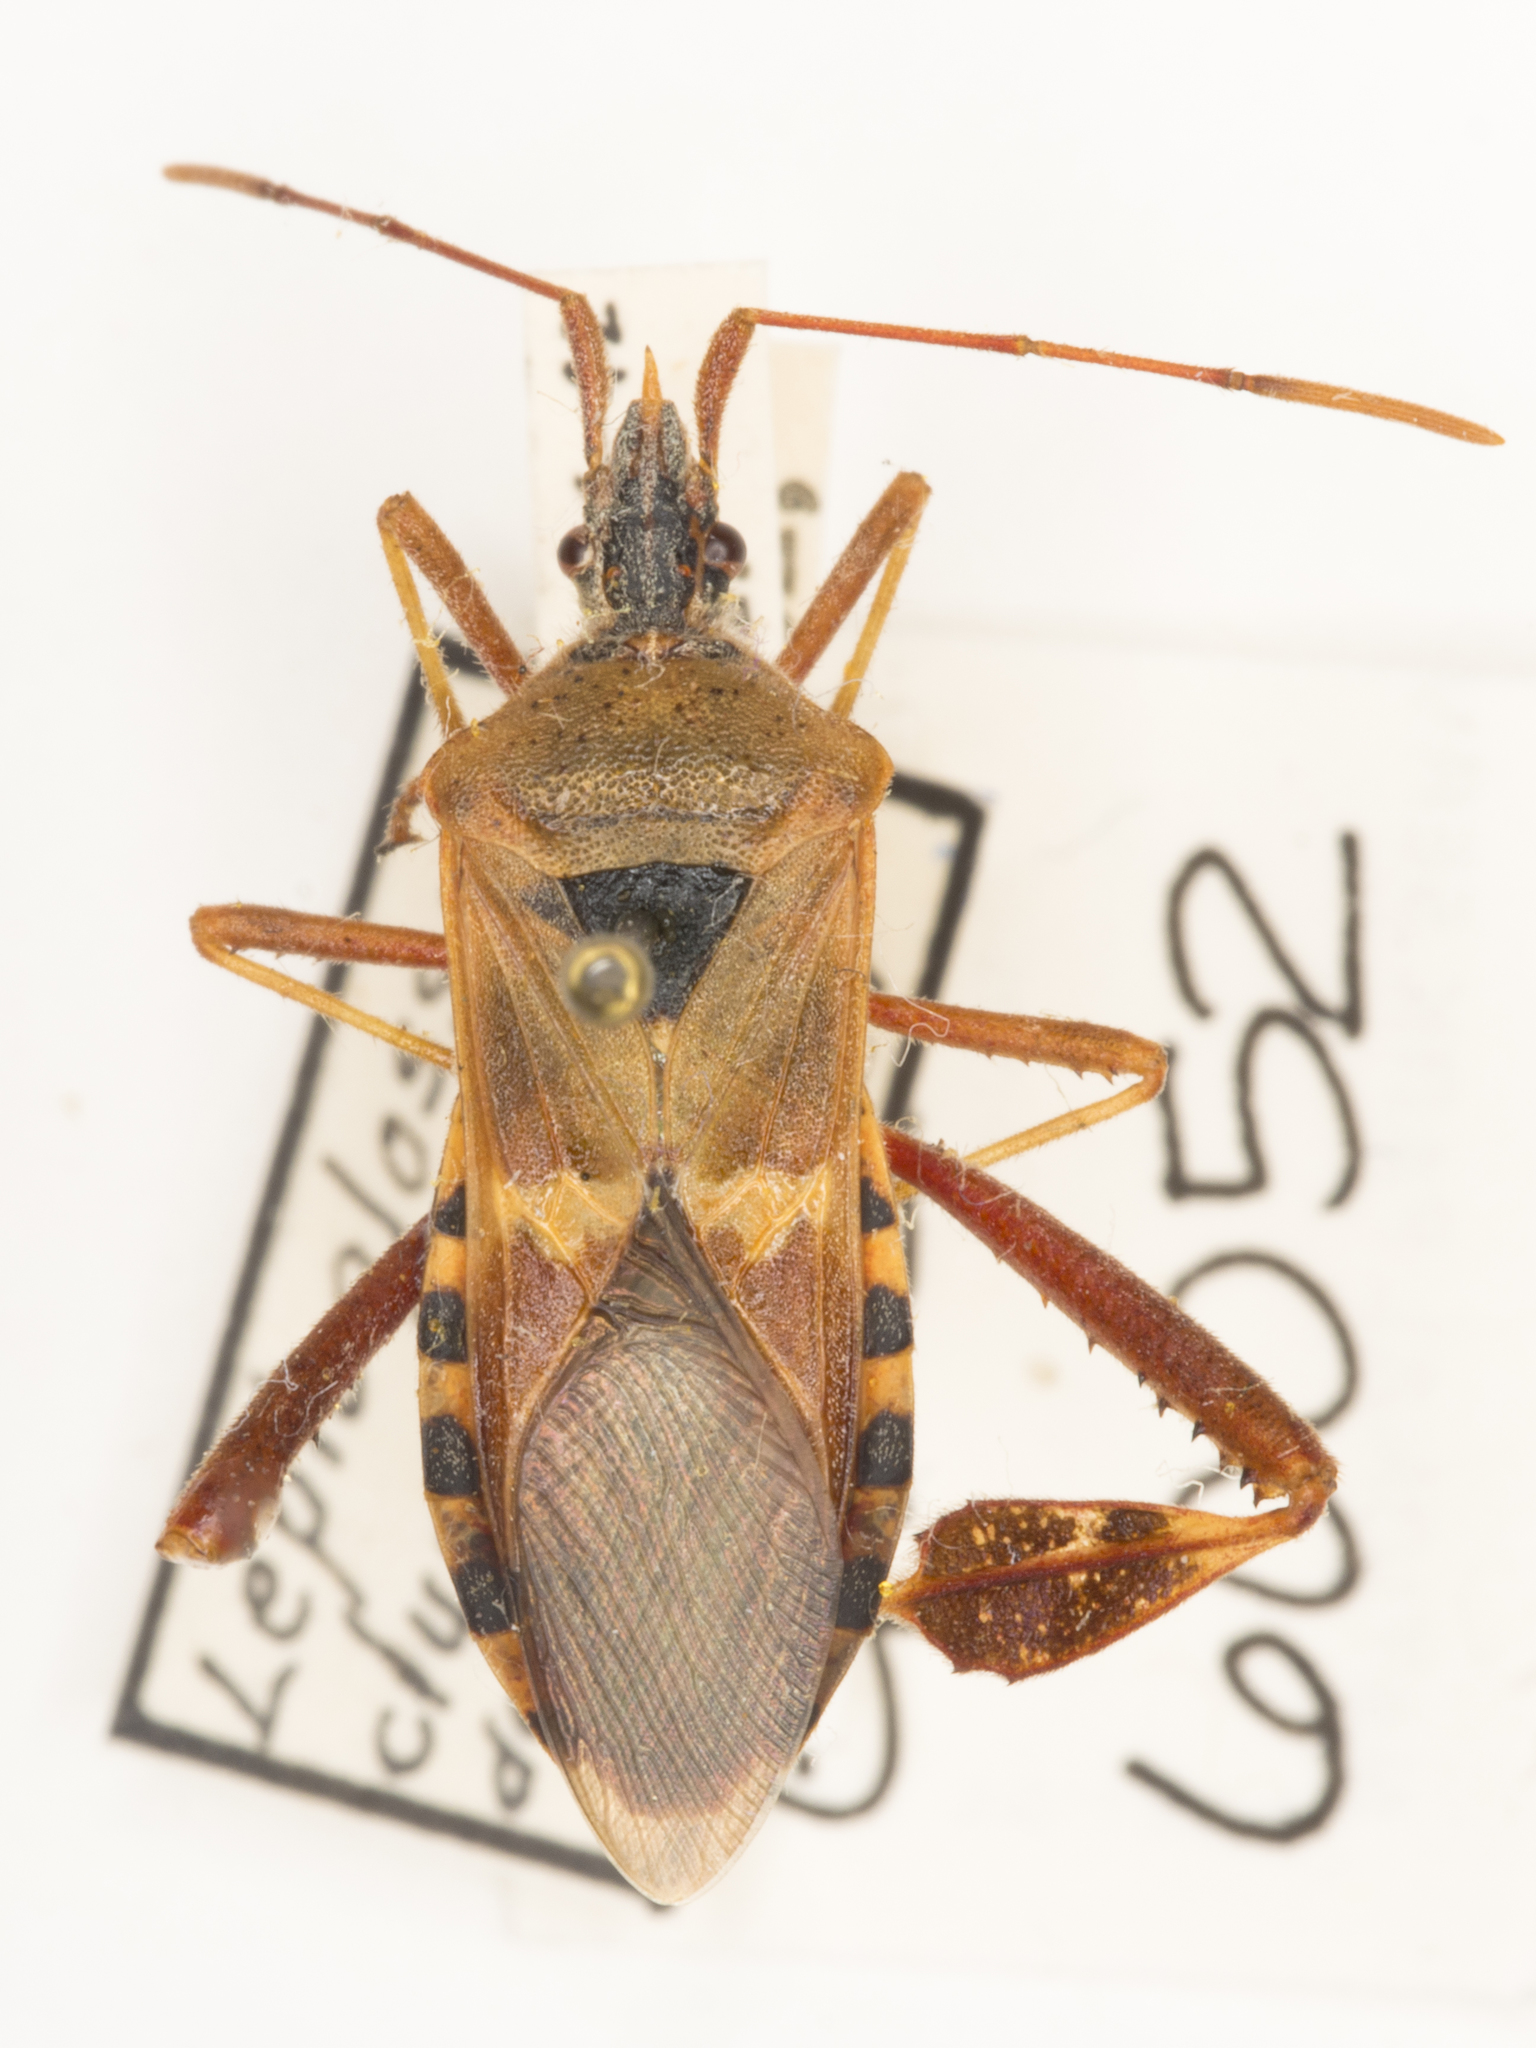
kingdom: Animalia
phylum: Arthropoda
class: Insecta
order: Hemiptera
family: Coreidae
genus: Leptoglossus
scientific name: Leptoglossus clypealis
